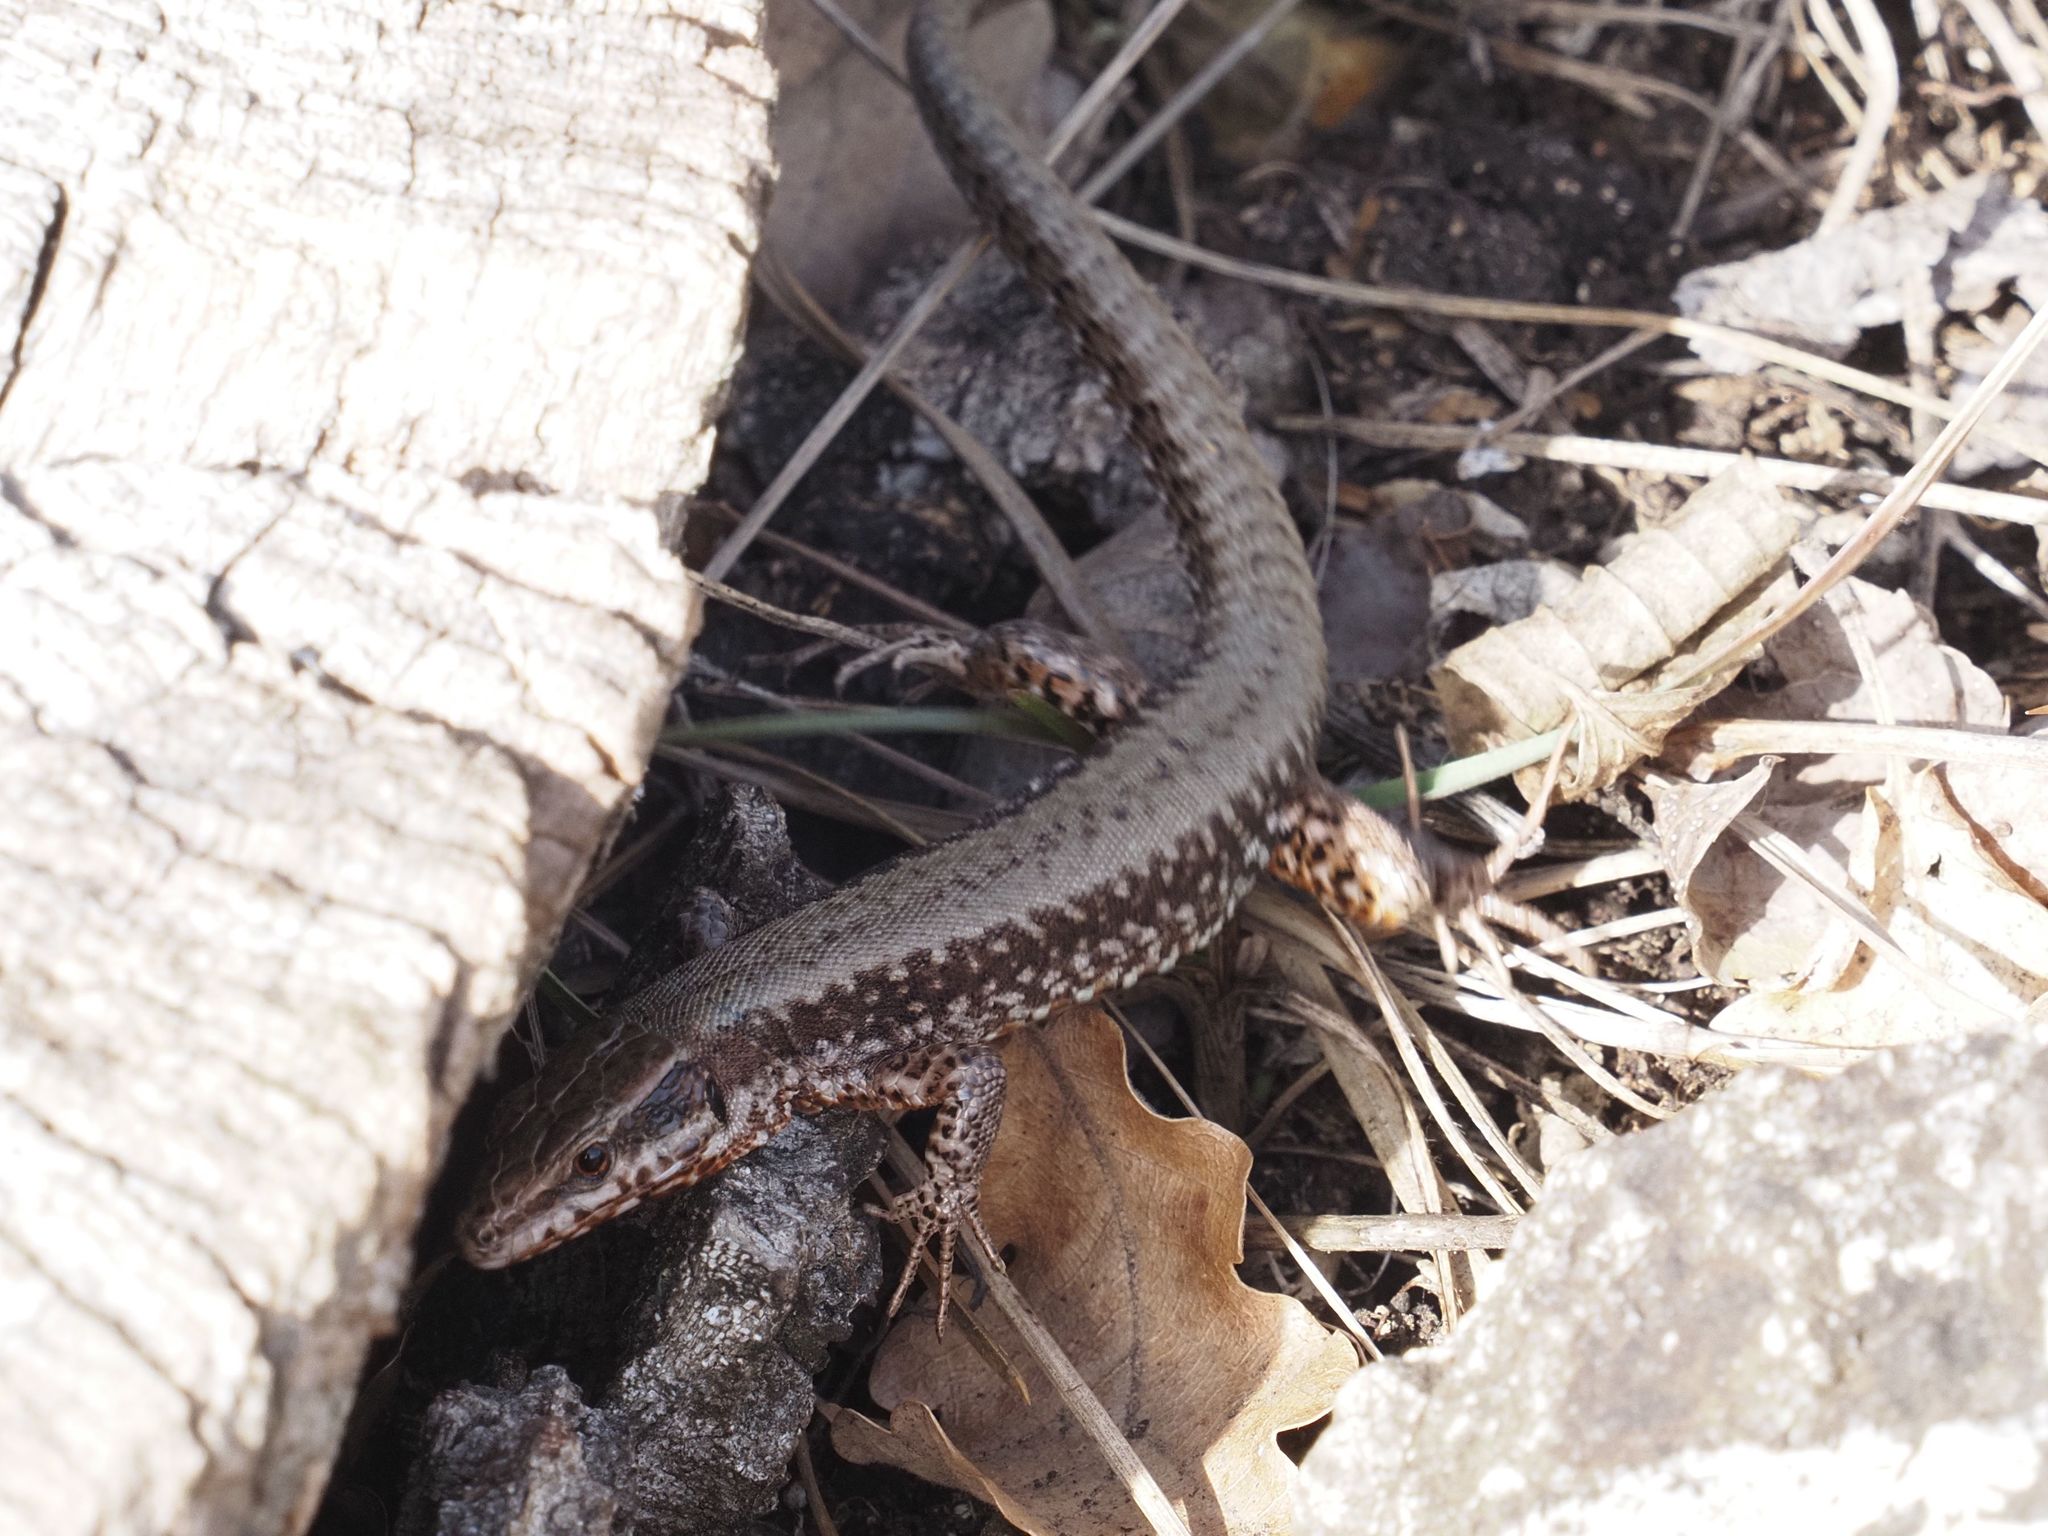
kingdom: Animalia
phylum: Chordata
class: Squamata
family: Lacertidae
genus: Podarcis
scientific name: Podarcis muralis
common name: Common wall lizard
